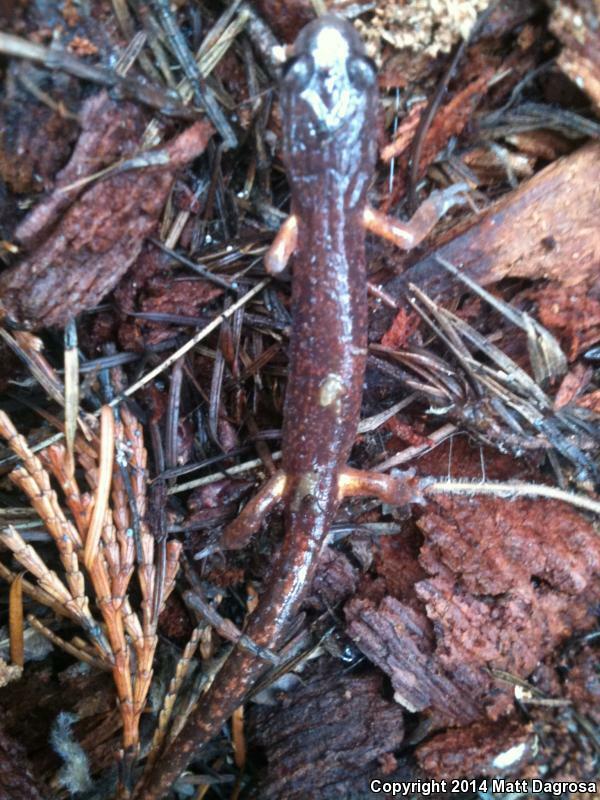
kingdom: Animalia
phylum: Chordata
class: Amphibia
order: Caudata
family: Plethodontidae
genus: Ensatina
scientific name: Ensatina eschscholtzii
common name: Ensatina
